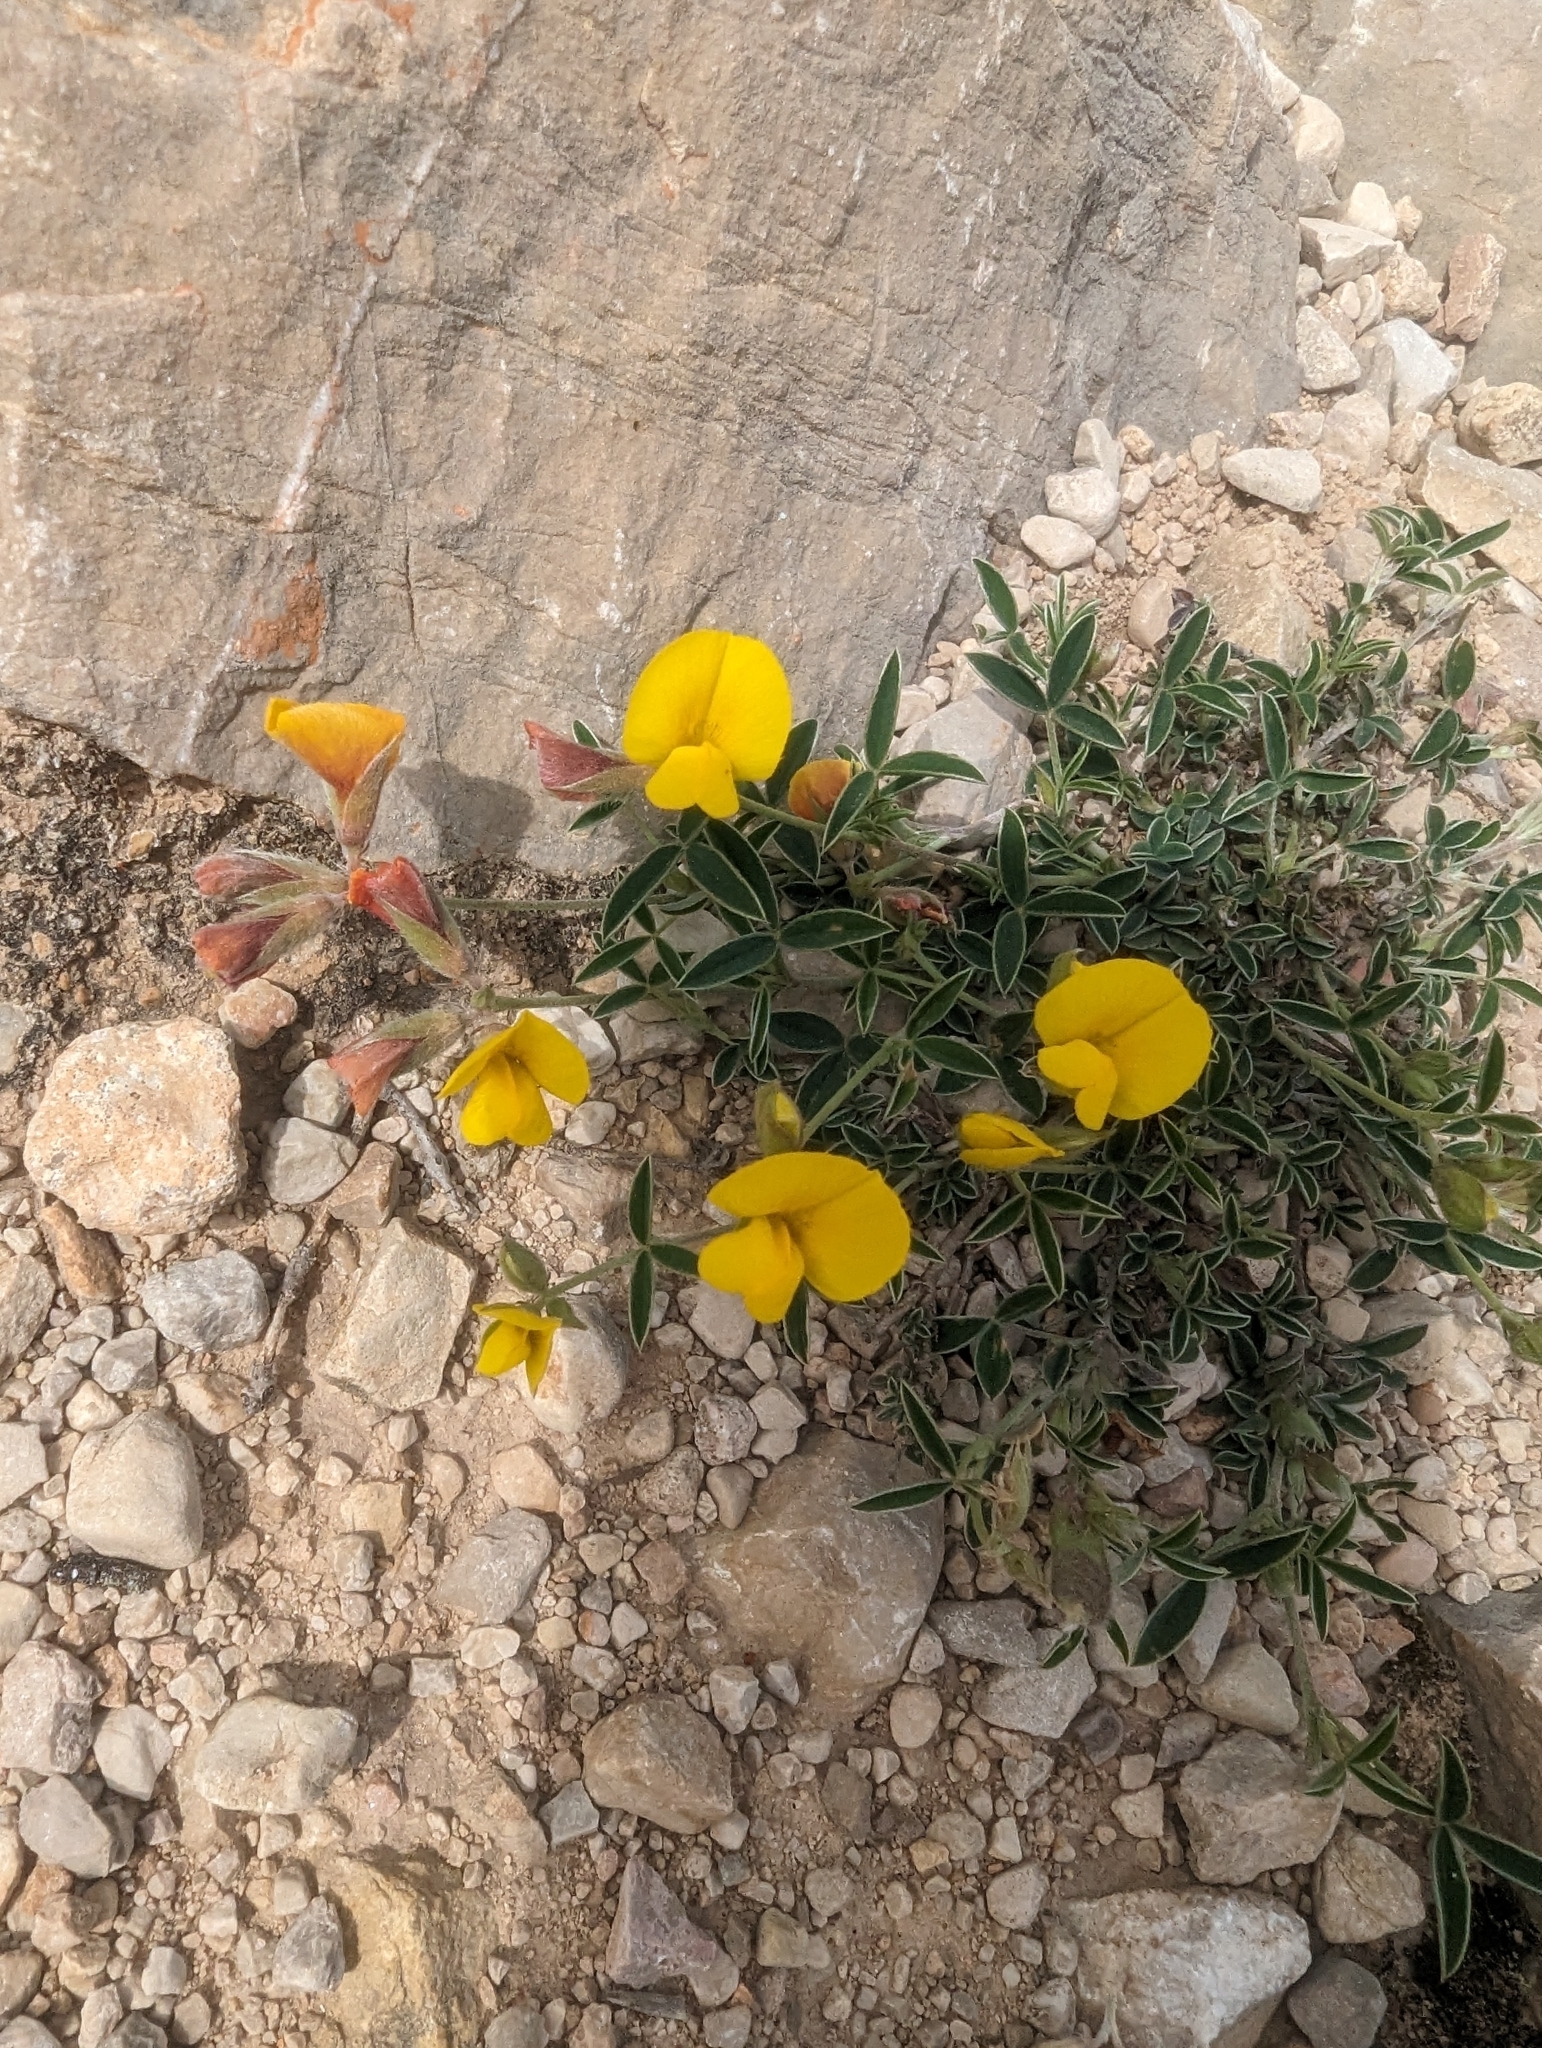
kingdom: Plantae
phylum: Tracheophyta
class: Magnoliopsida
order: Fabales
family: Fabaceae
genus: Argyrolobium
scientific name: Argyrolobium zanonii
